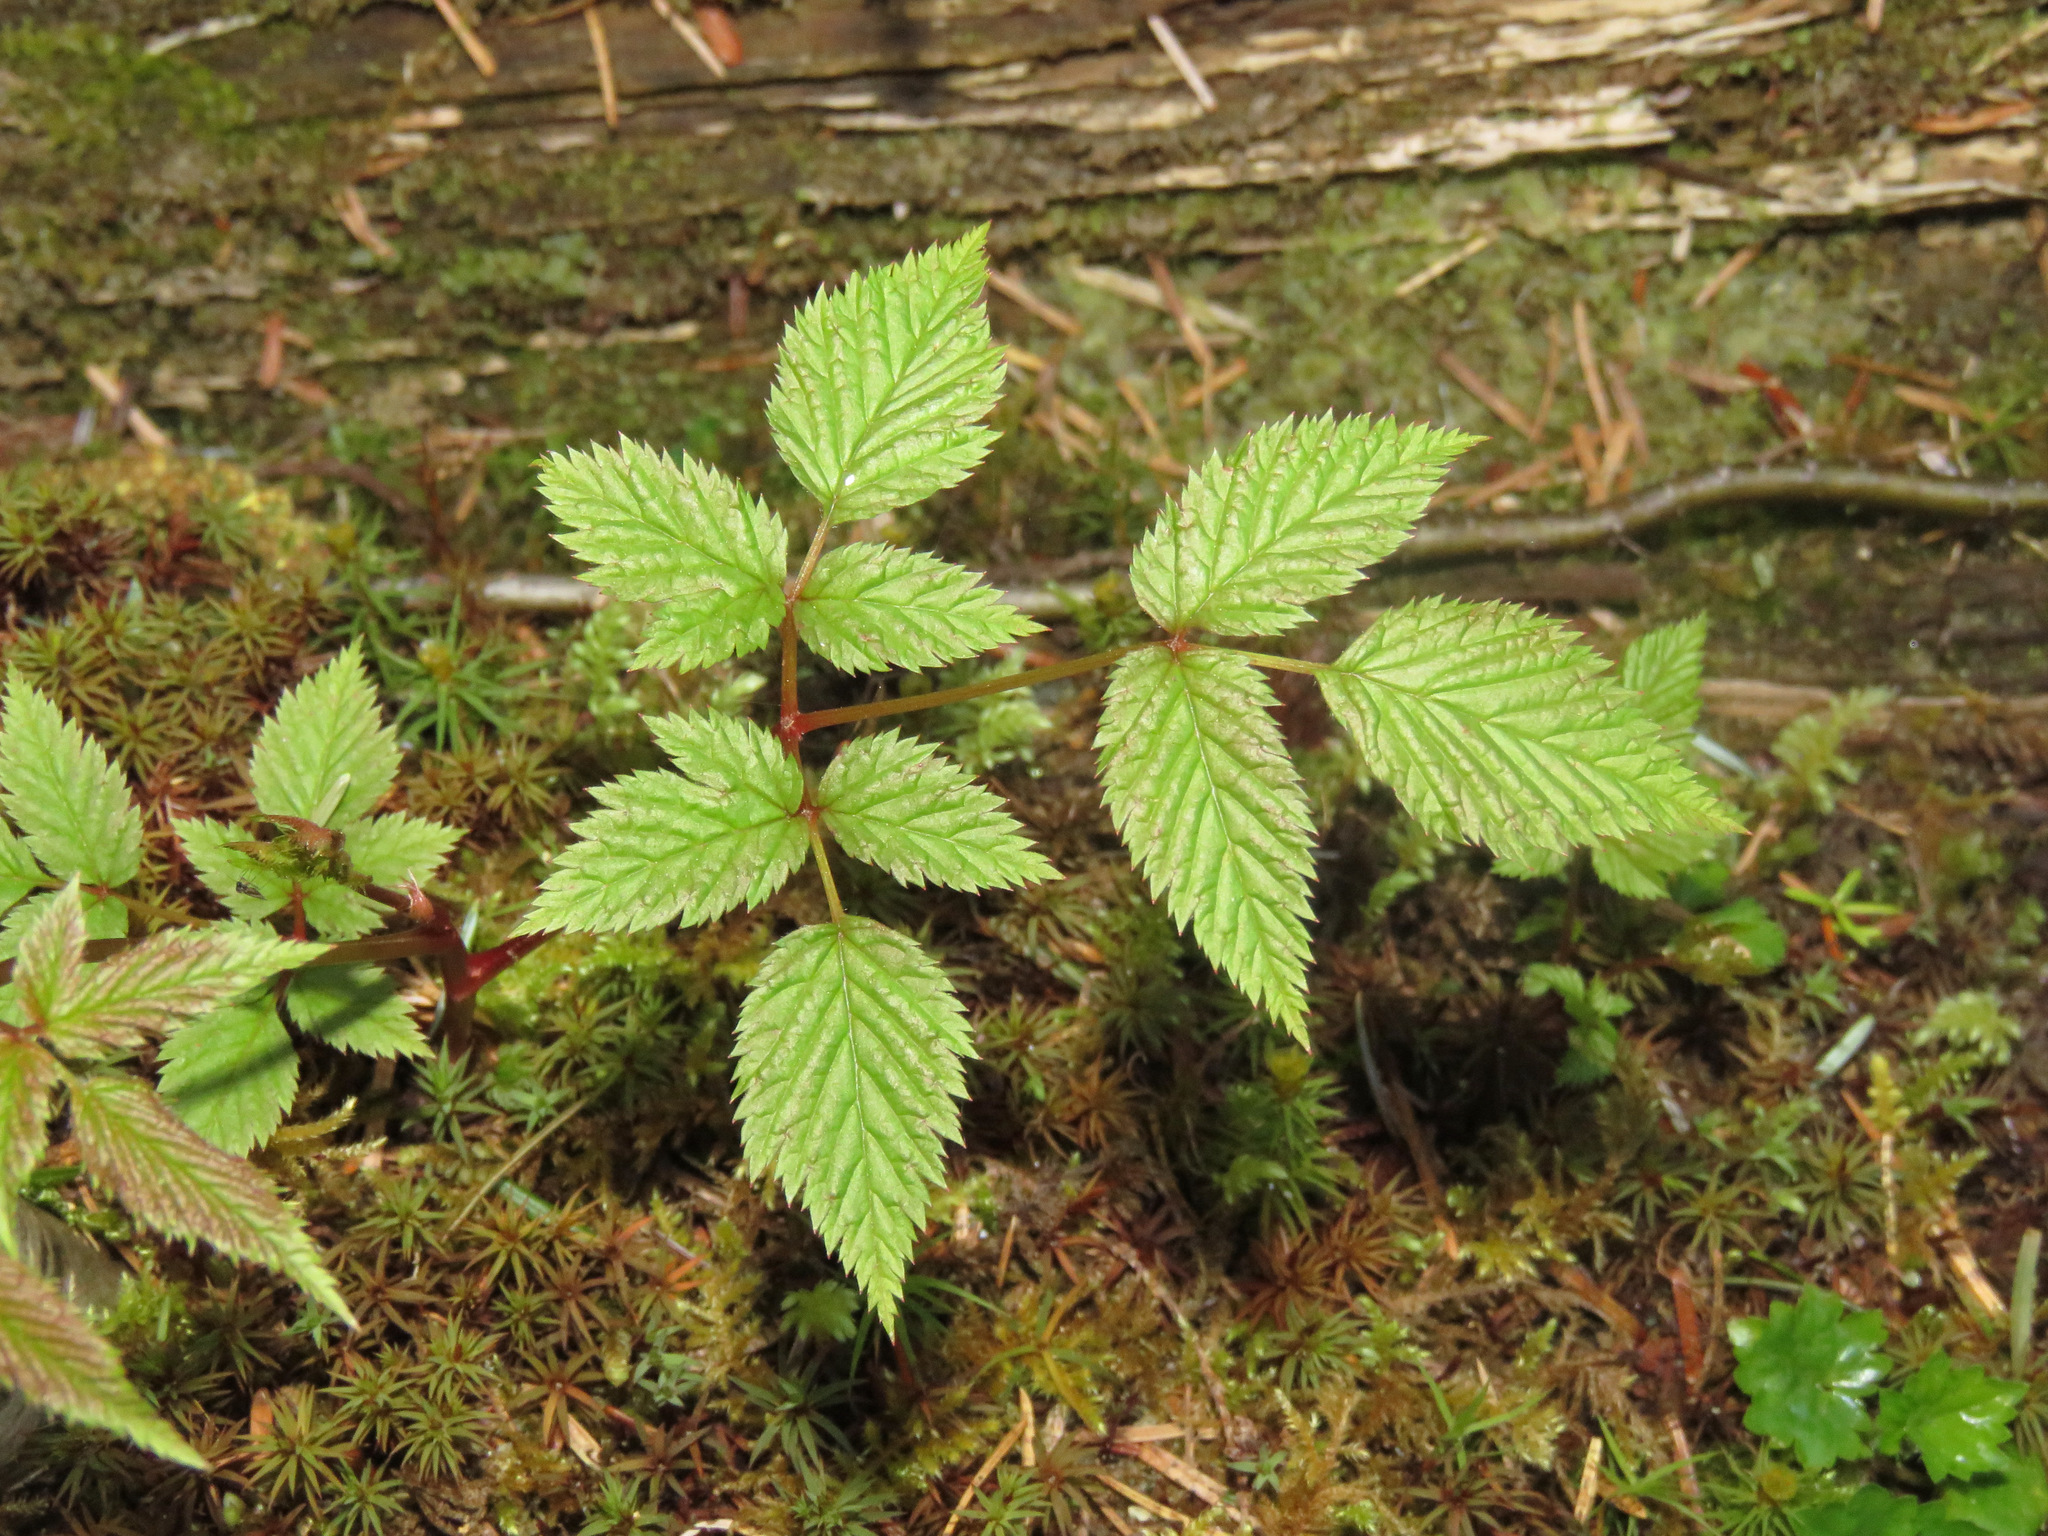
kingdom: Plantae
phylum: Tracheophyta
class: Magnoliopsida
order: Rosales
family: Rosaceae
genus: Aruncus
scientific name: Aruncus dioicus
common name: Buck's-beard
